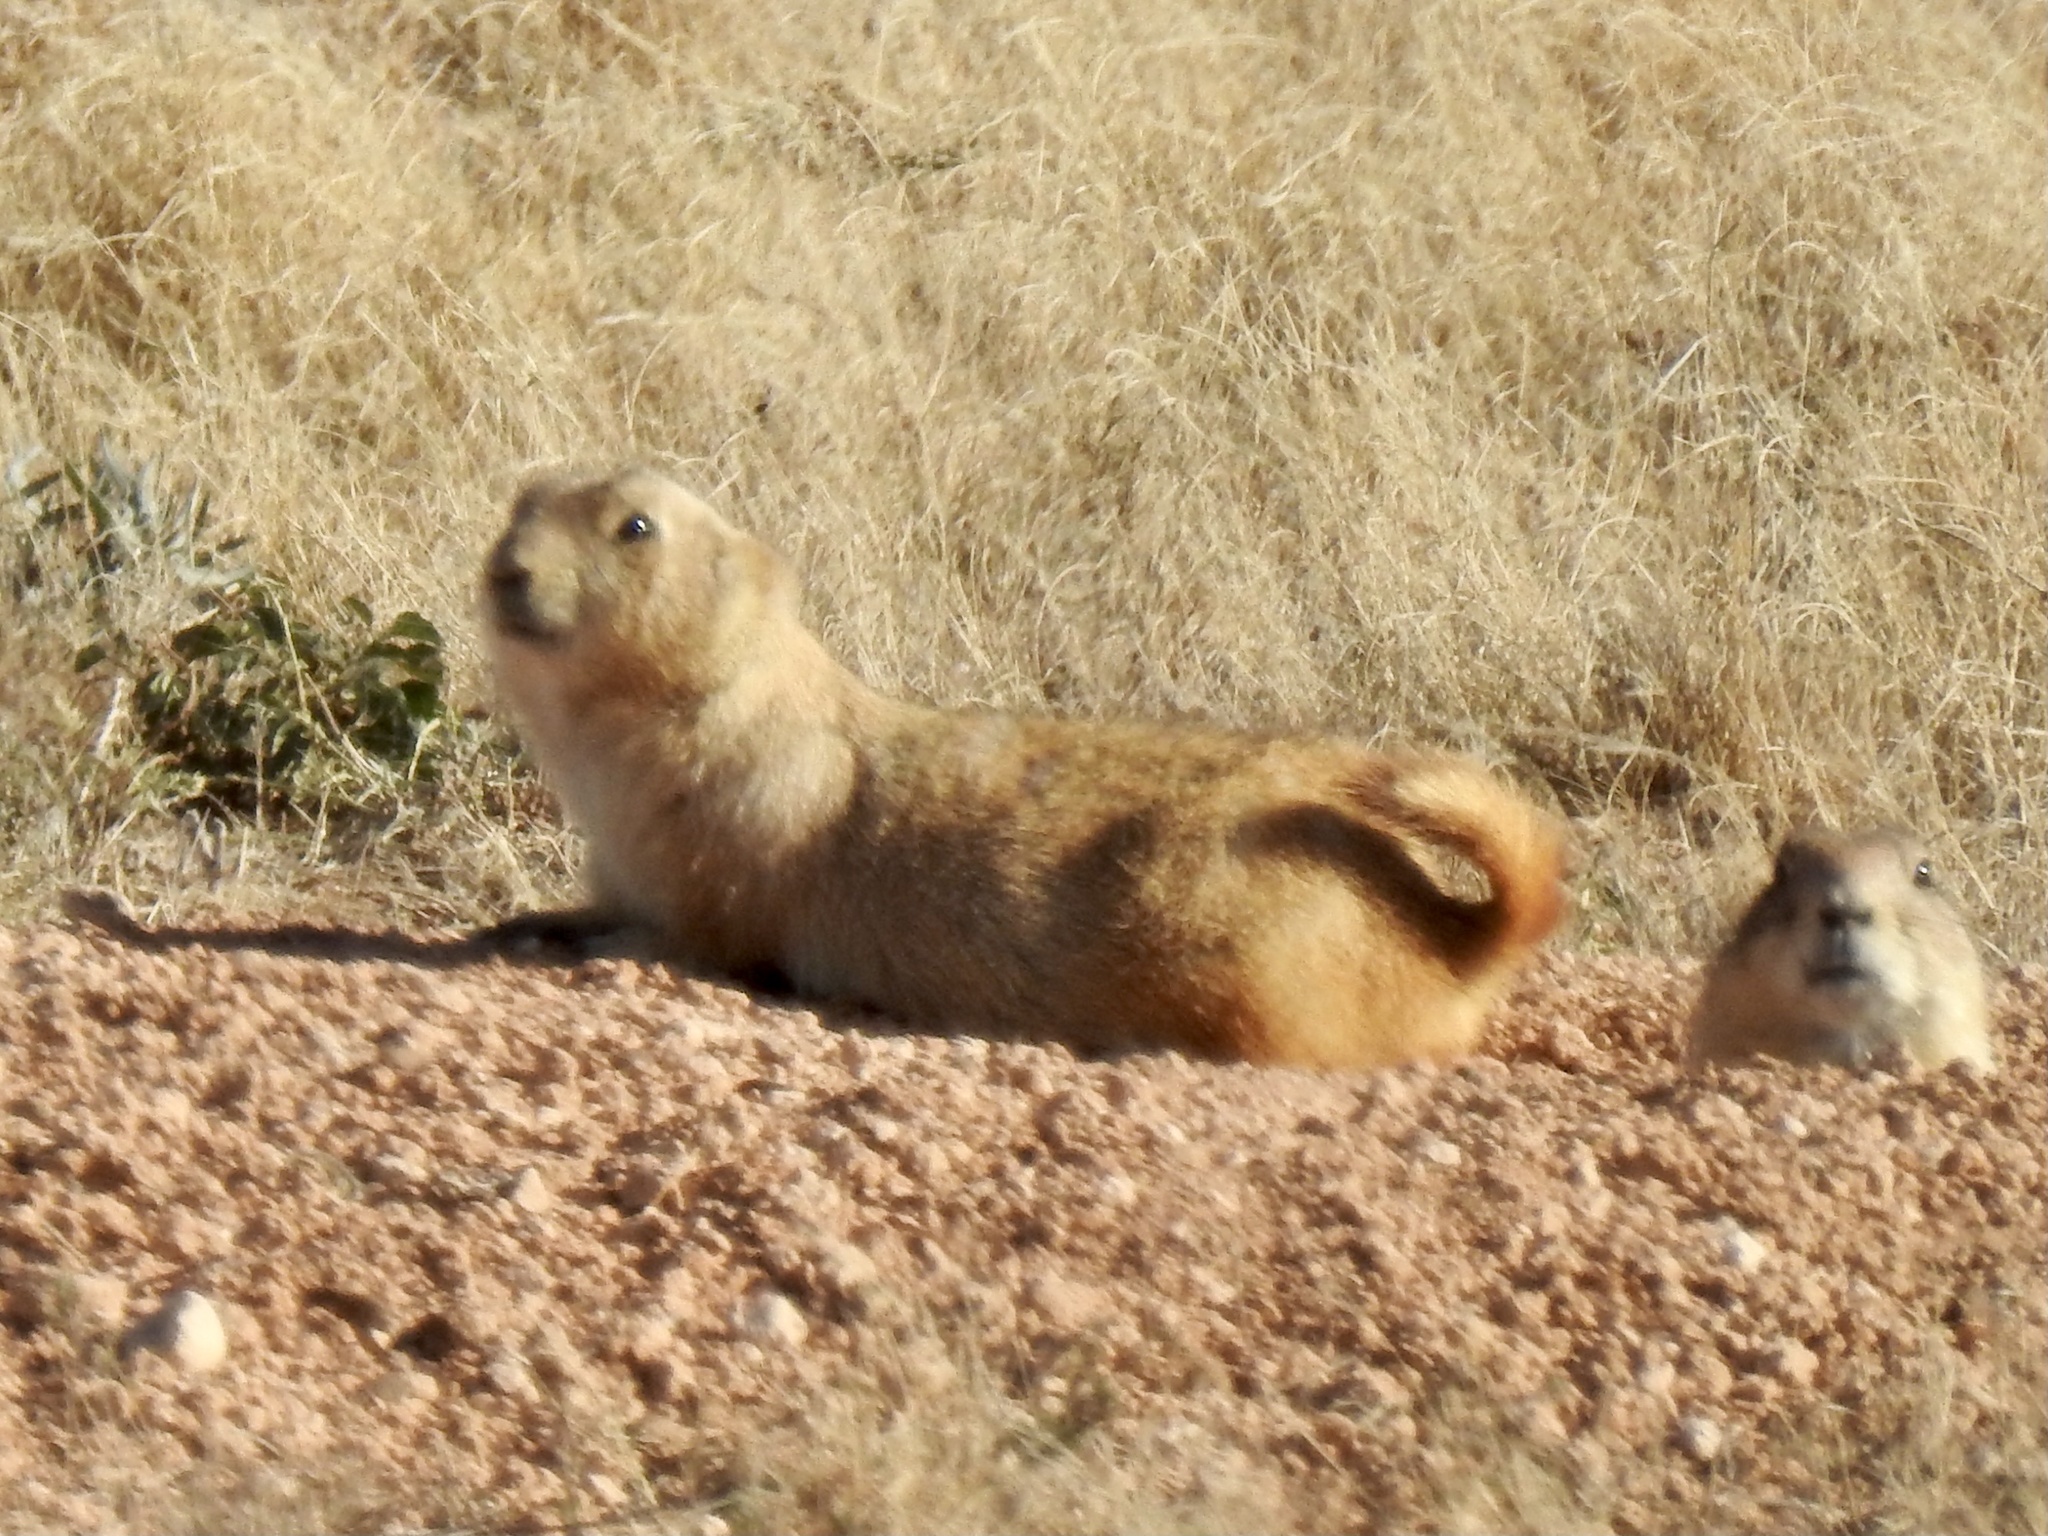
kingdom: Animalia
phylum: Chordata
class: Mammalia
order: Rodentia
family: Sciuridae
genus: Cynomys
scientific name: Cynomys ludovicianus
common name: Black-tailed prairie dog
